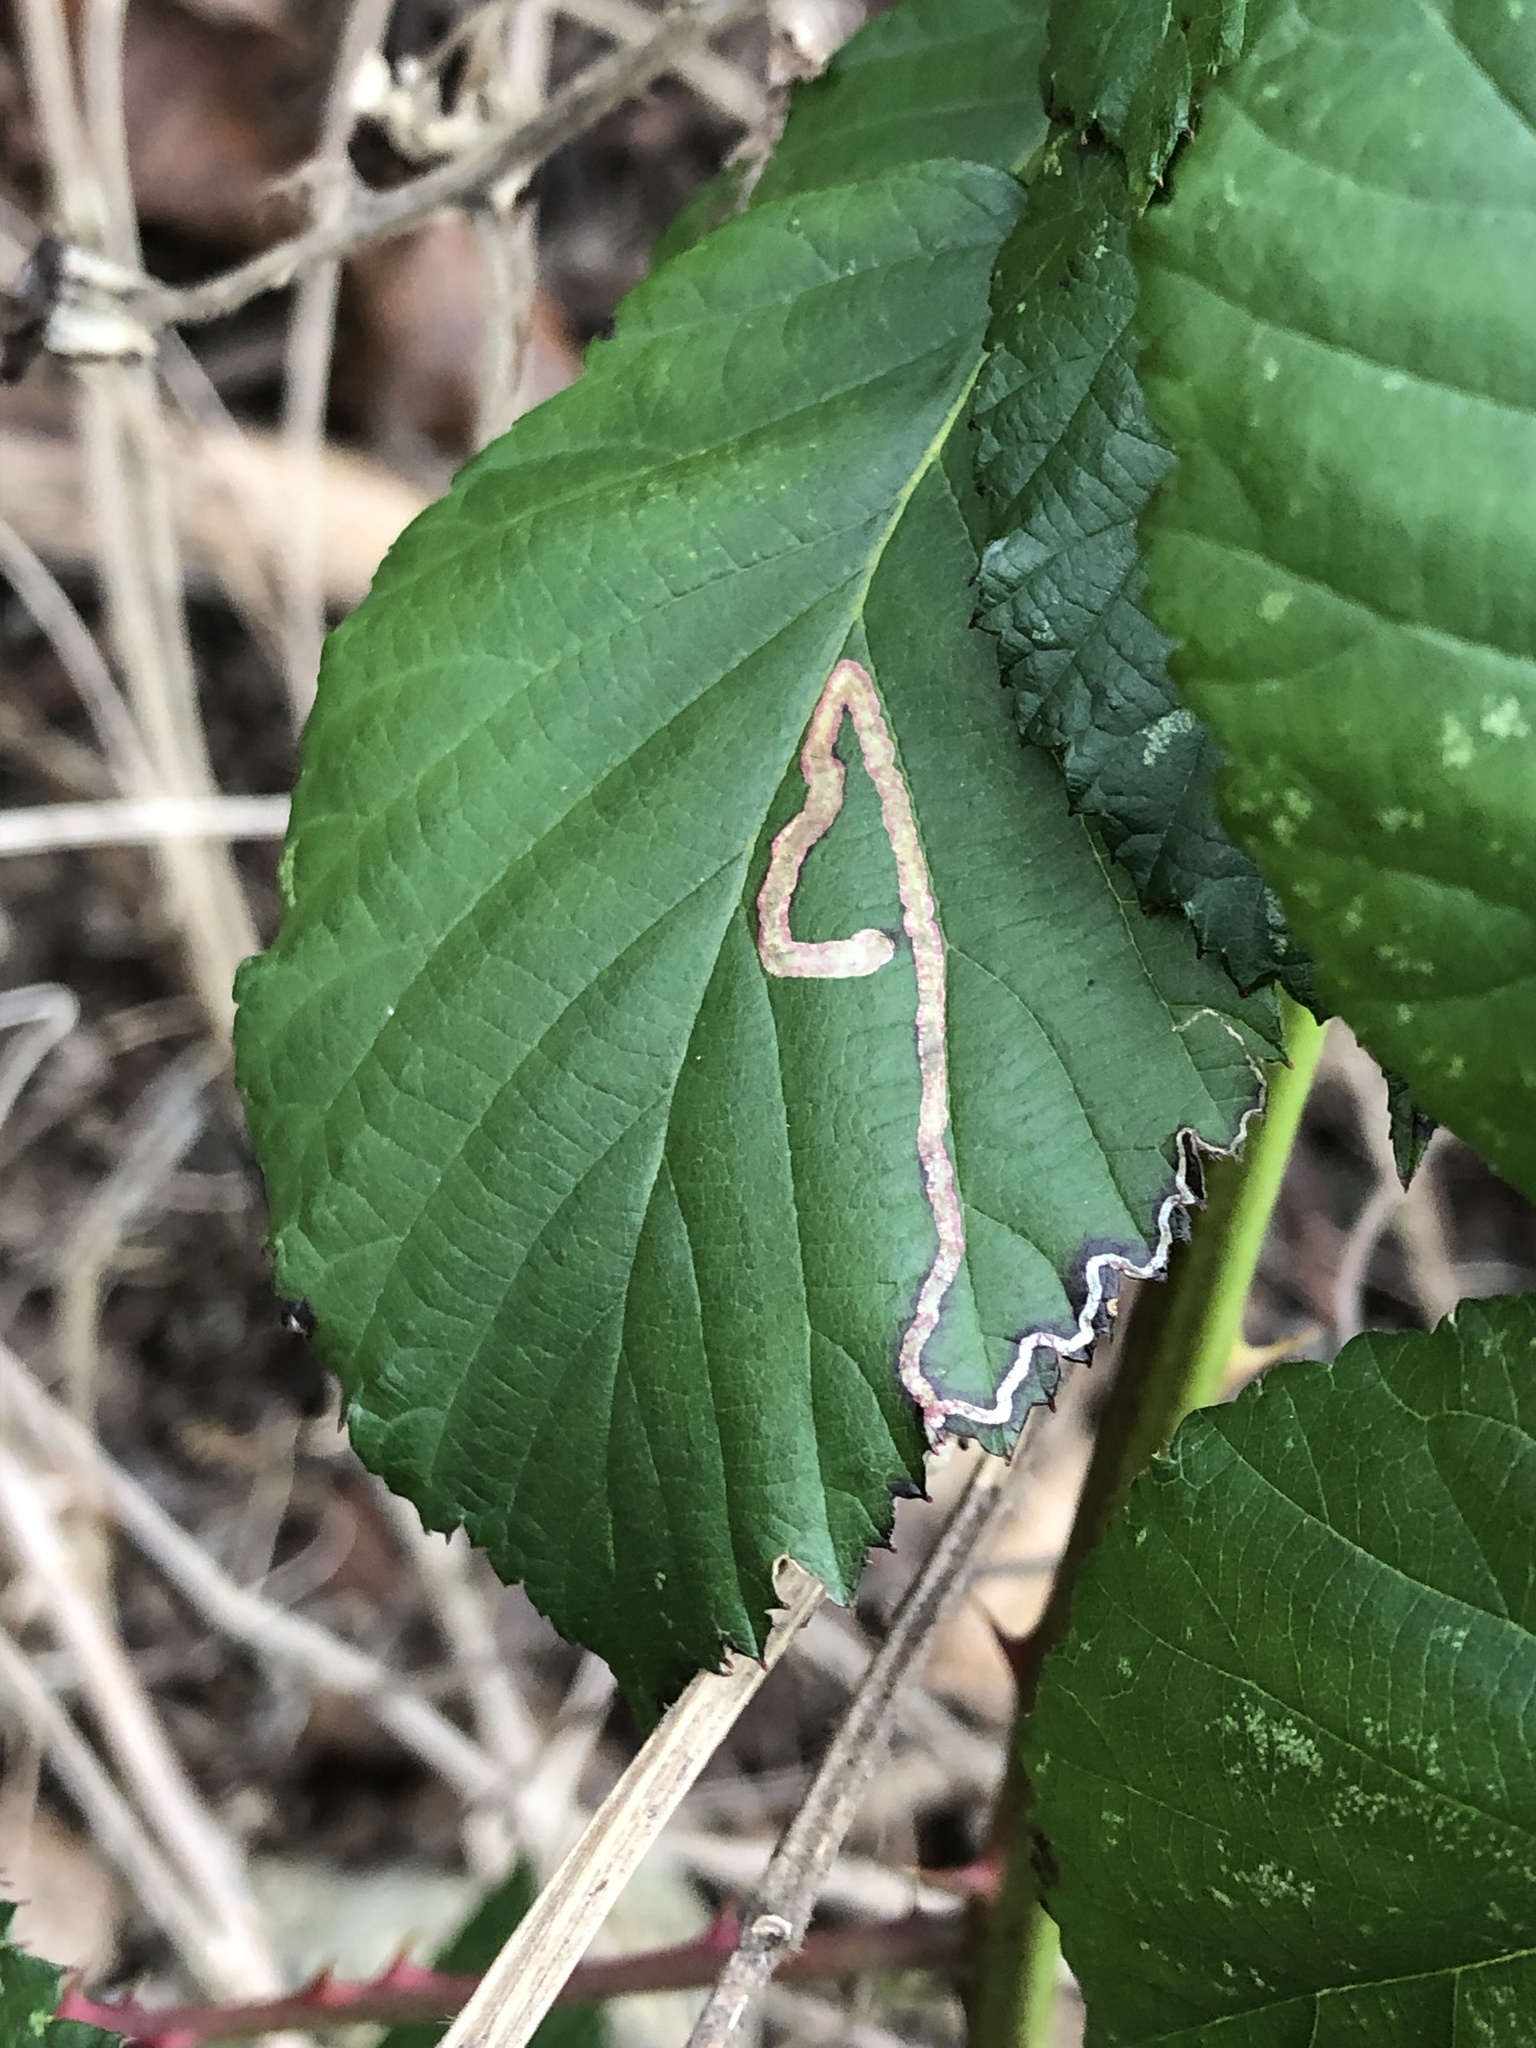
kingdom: Animalia
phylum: Arthropoda
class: Insecta
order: Lepidoptera
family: Nepticulidae
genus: Stigmella
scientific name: Stigmella aurella
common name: Golden pigmy
